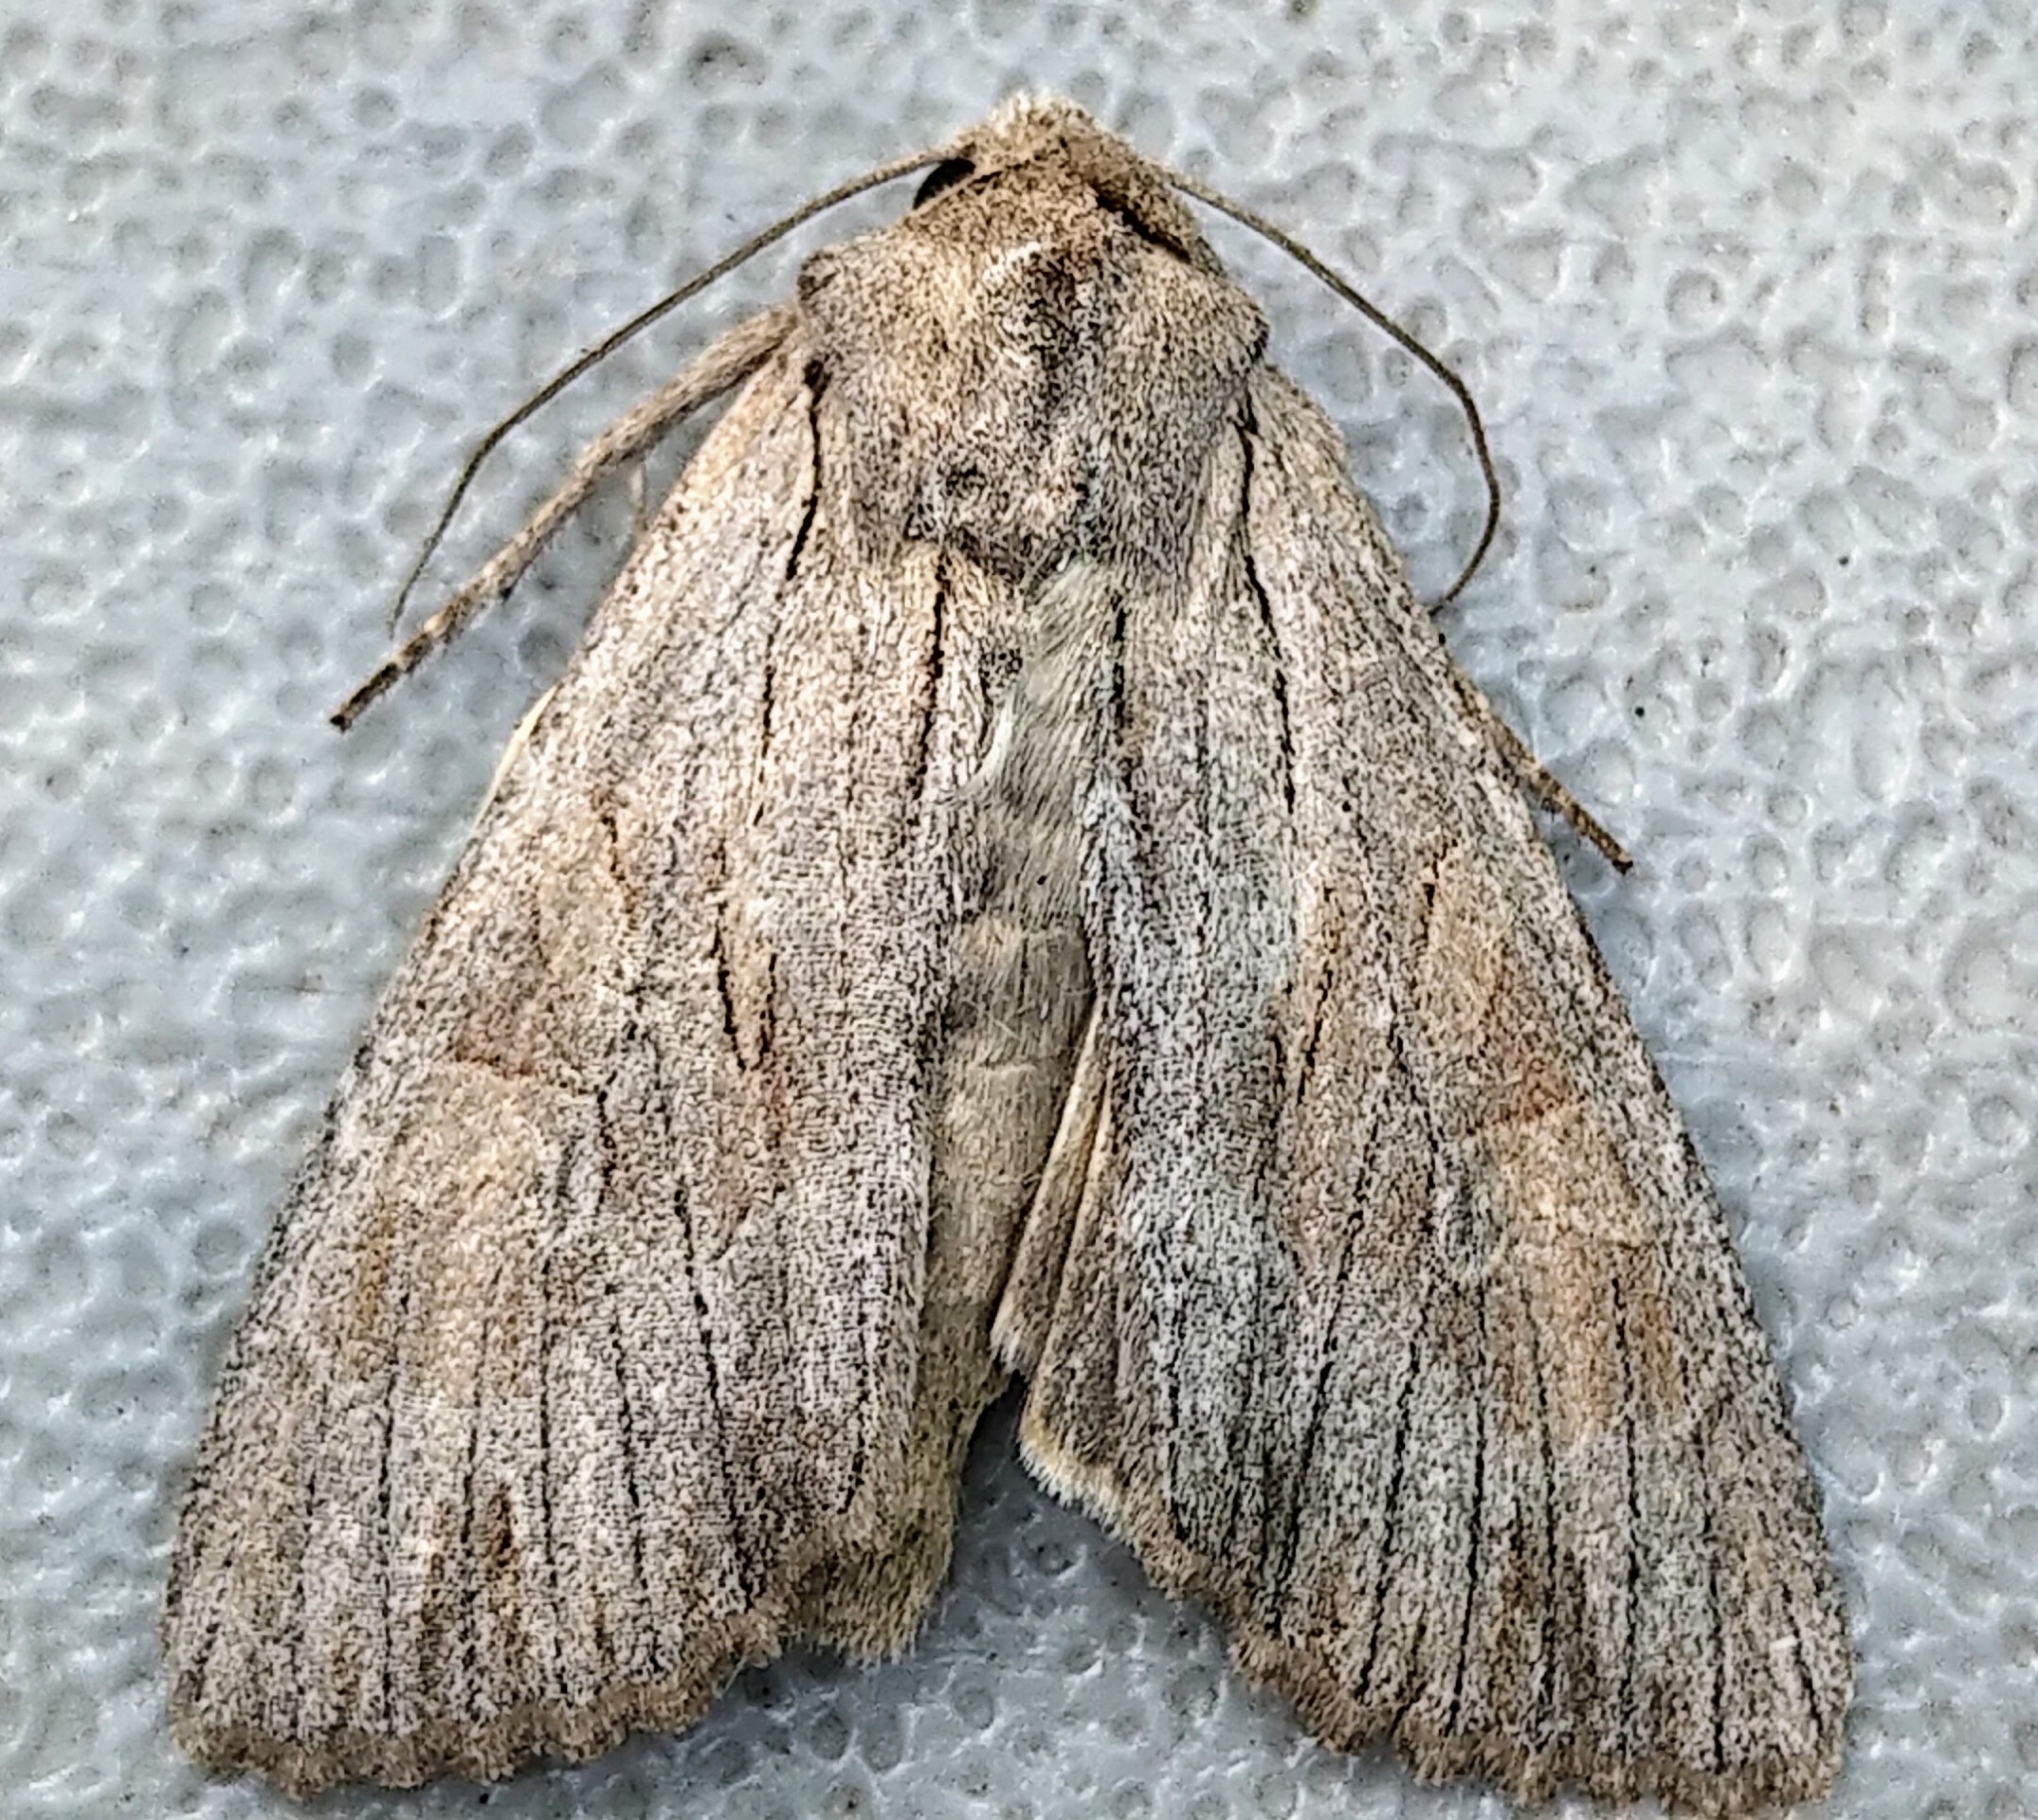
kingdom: Animalia
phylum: Arthropoda
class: Insecta
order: Lepidoptera
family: Noctuidae
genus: Apamea
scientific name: Apamea acera
